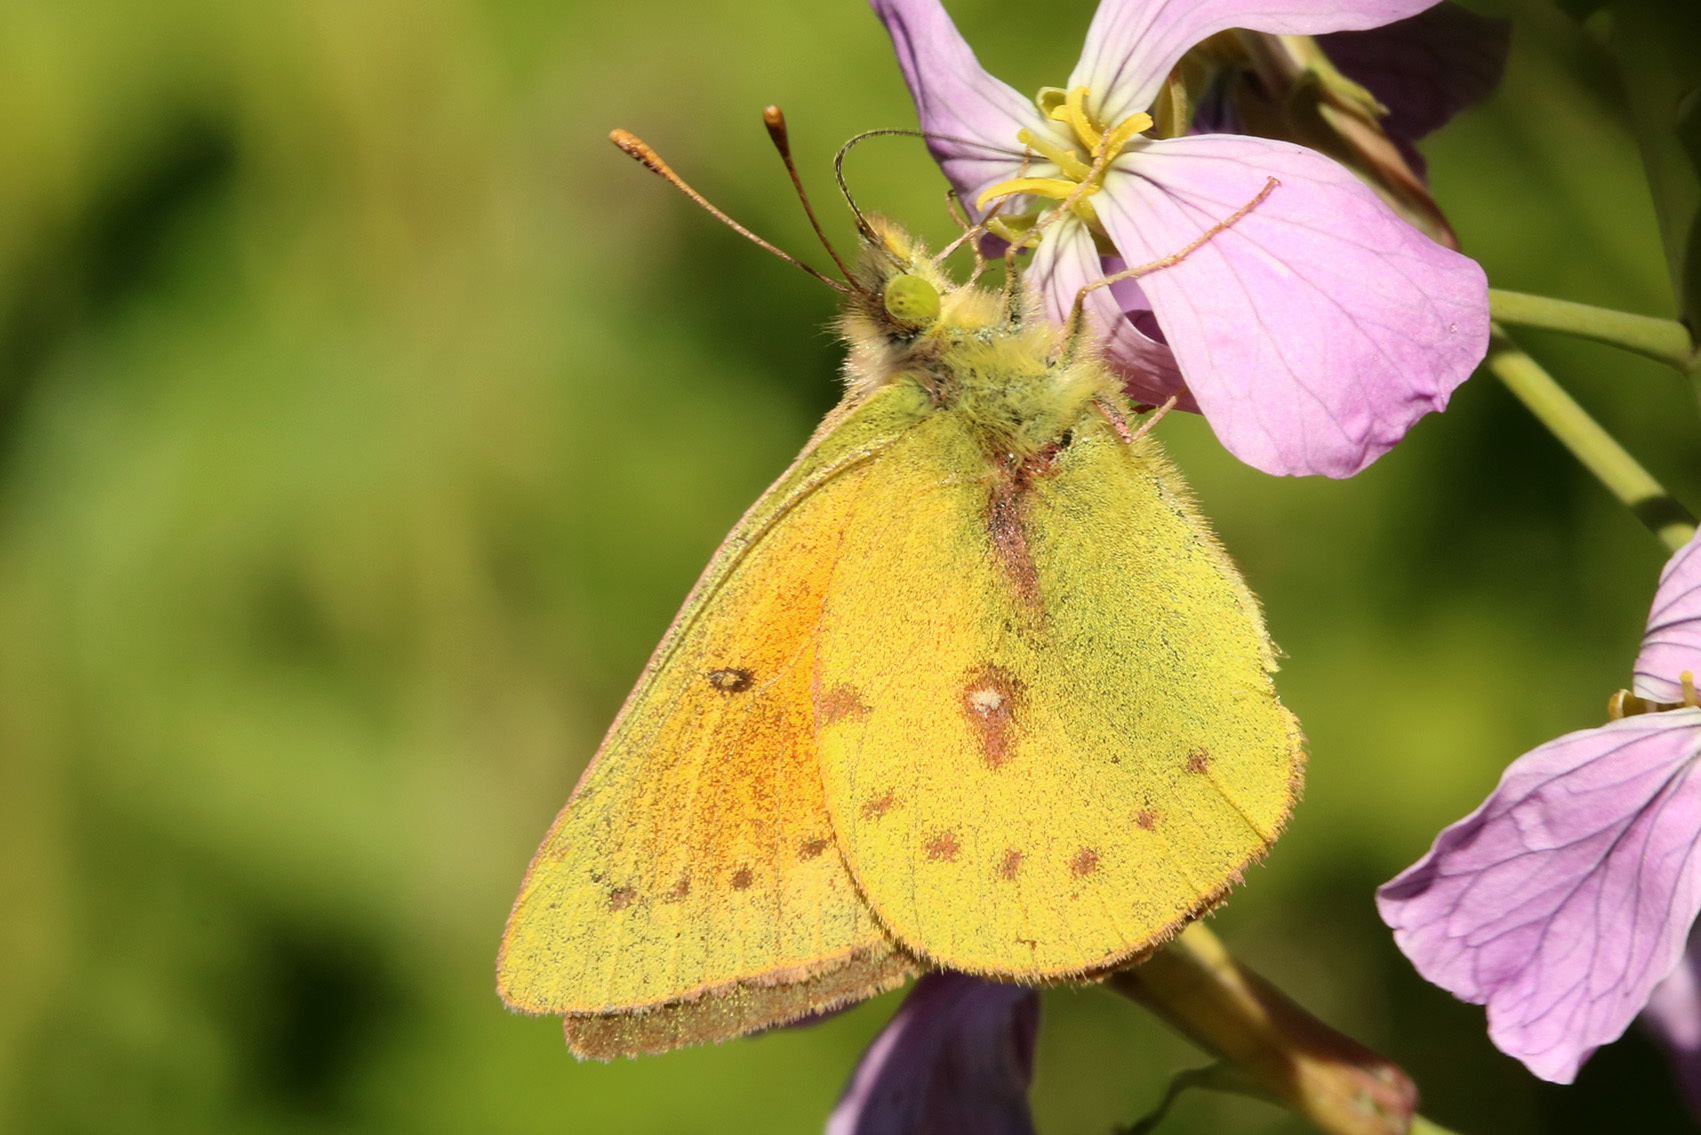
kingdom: Animalia
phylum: Arthropoda
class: Insecta
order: Lepidoptera
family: Pieridae
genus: Colias
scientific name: Colias lesbia
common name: Lesbia clouded yellow
